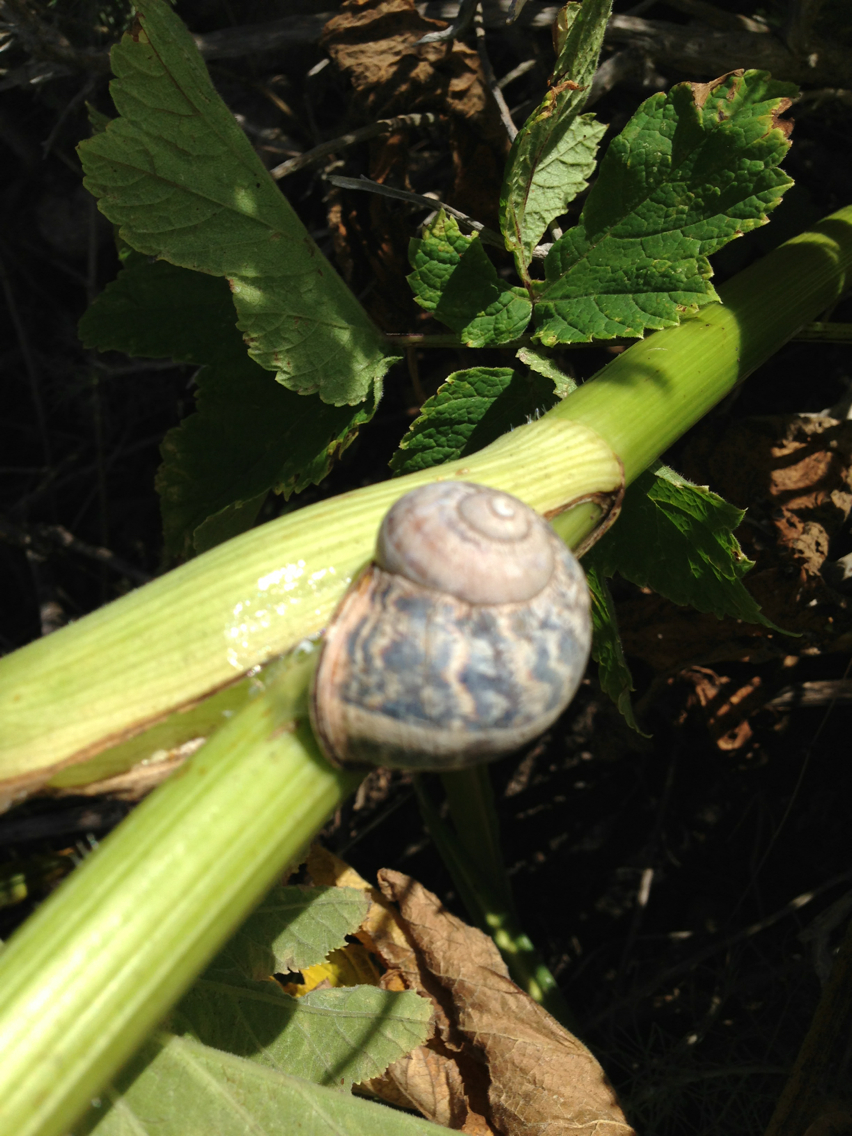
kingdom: Animalia
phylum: Mollusca
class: Gastropoda
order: Stylommatophora
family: Helicidae
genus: Cornu
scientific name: Cornu aspersum
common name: Brown garden snail
